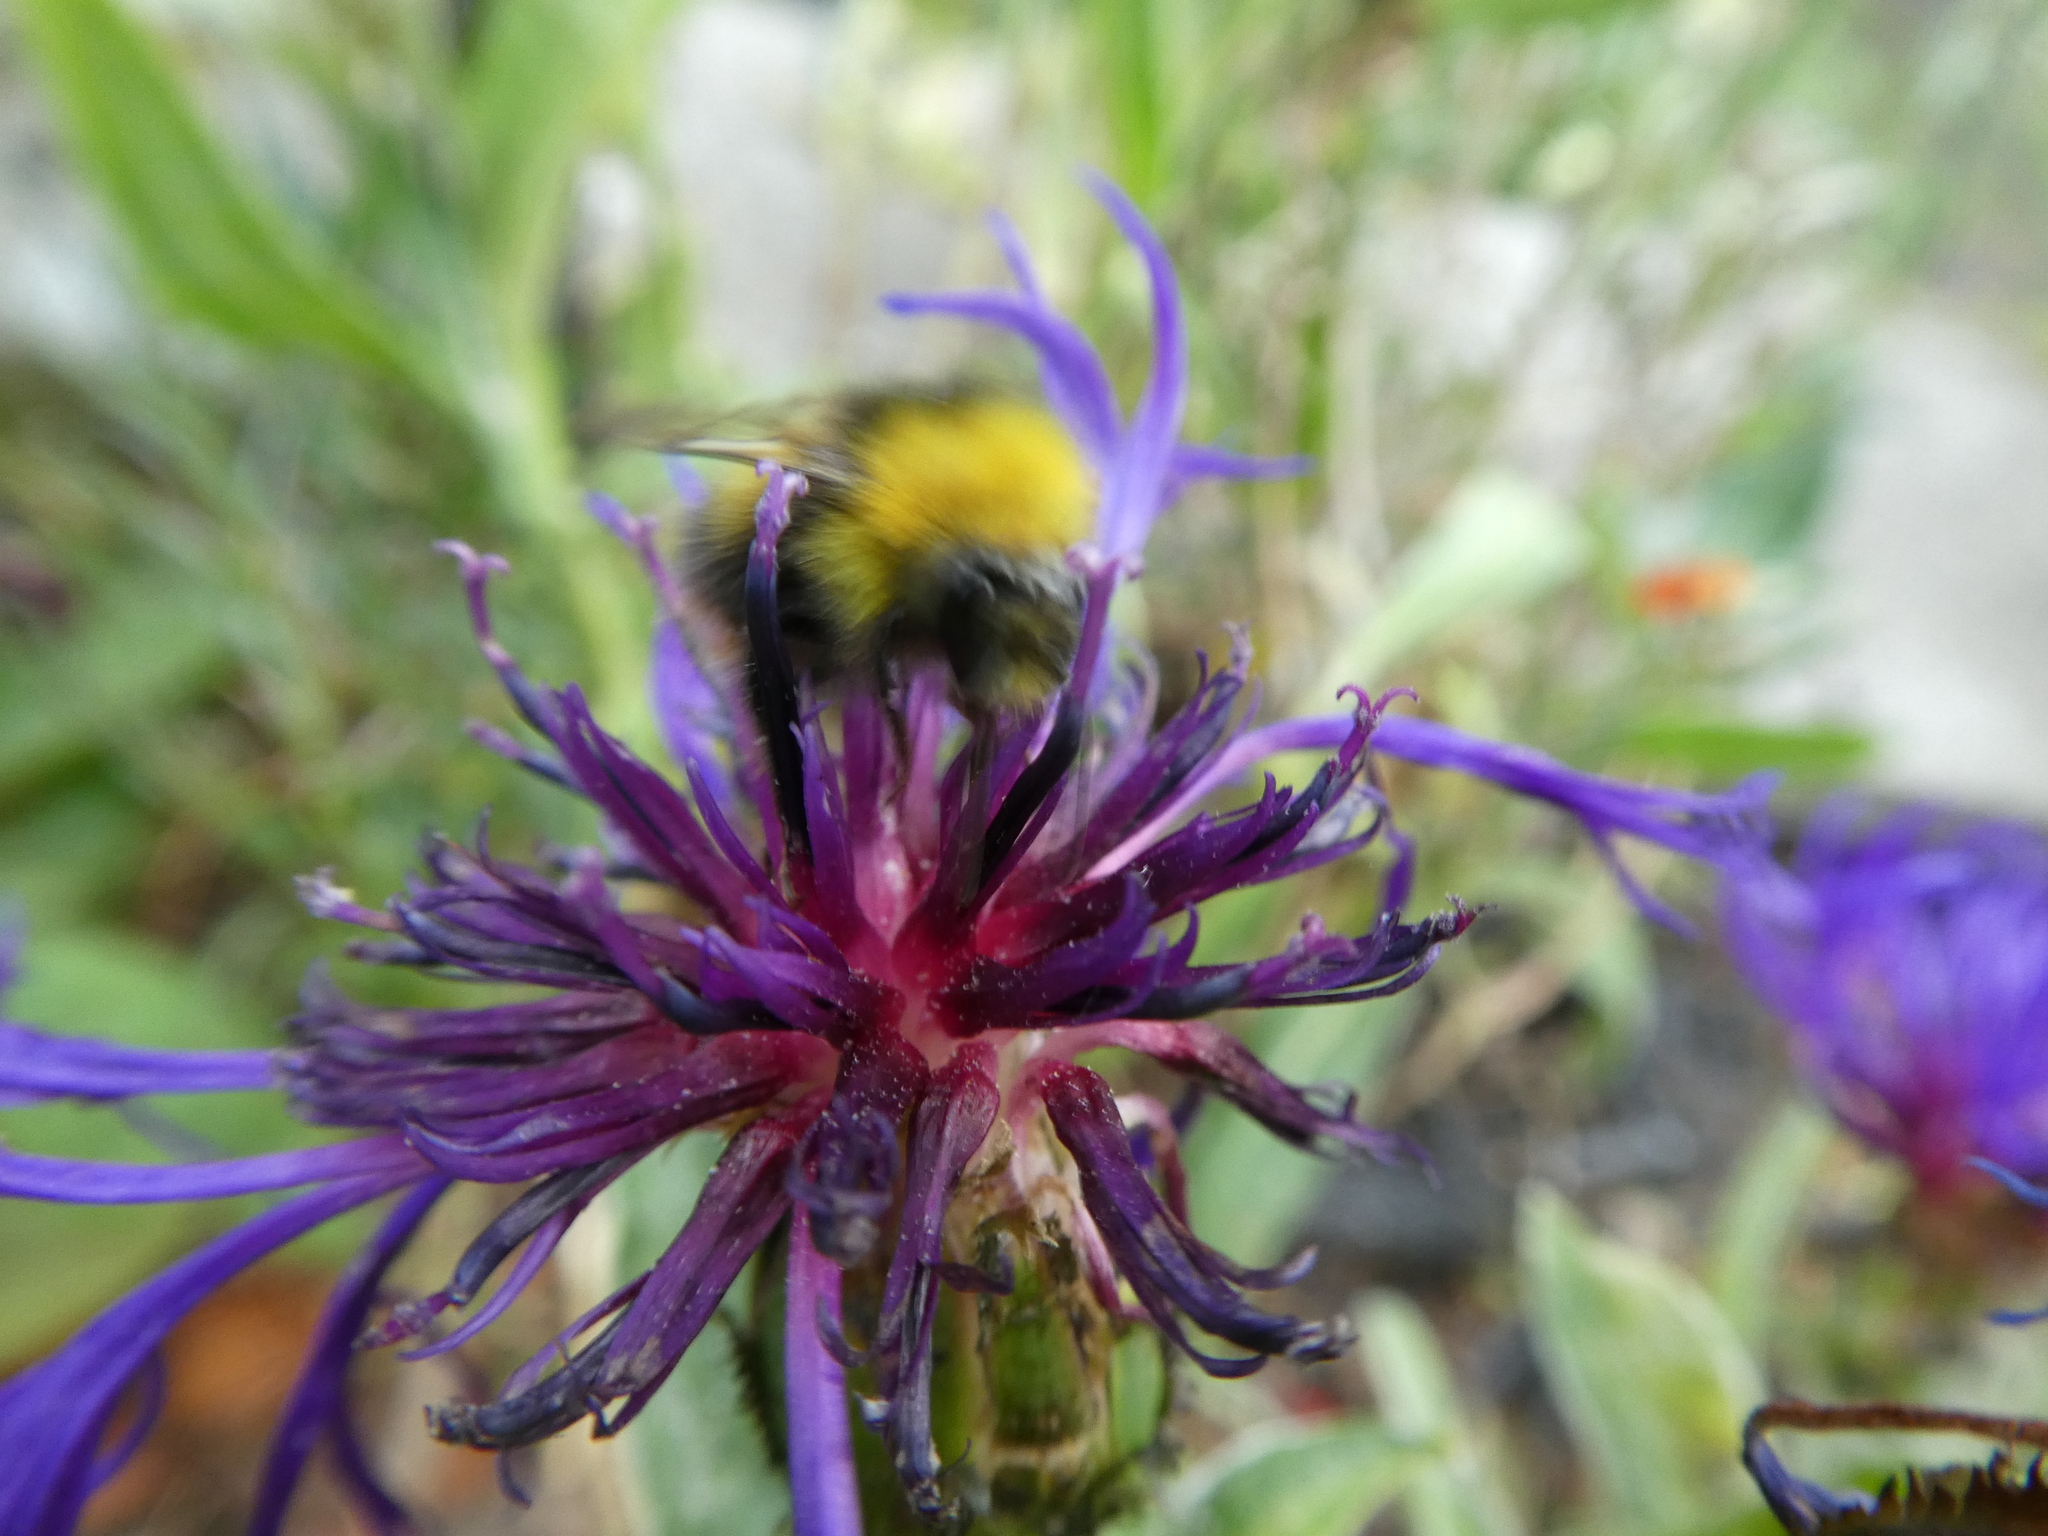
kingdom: Animalia
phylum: Arthropoda
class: Insecta
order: Hymenoptera
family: Apidae
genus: Bombus
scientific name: Bombus pratorum
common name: Early humble-bee
